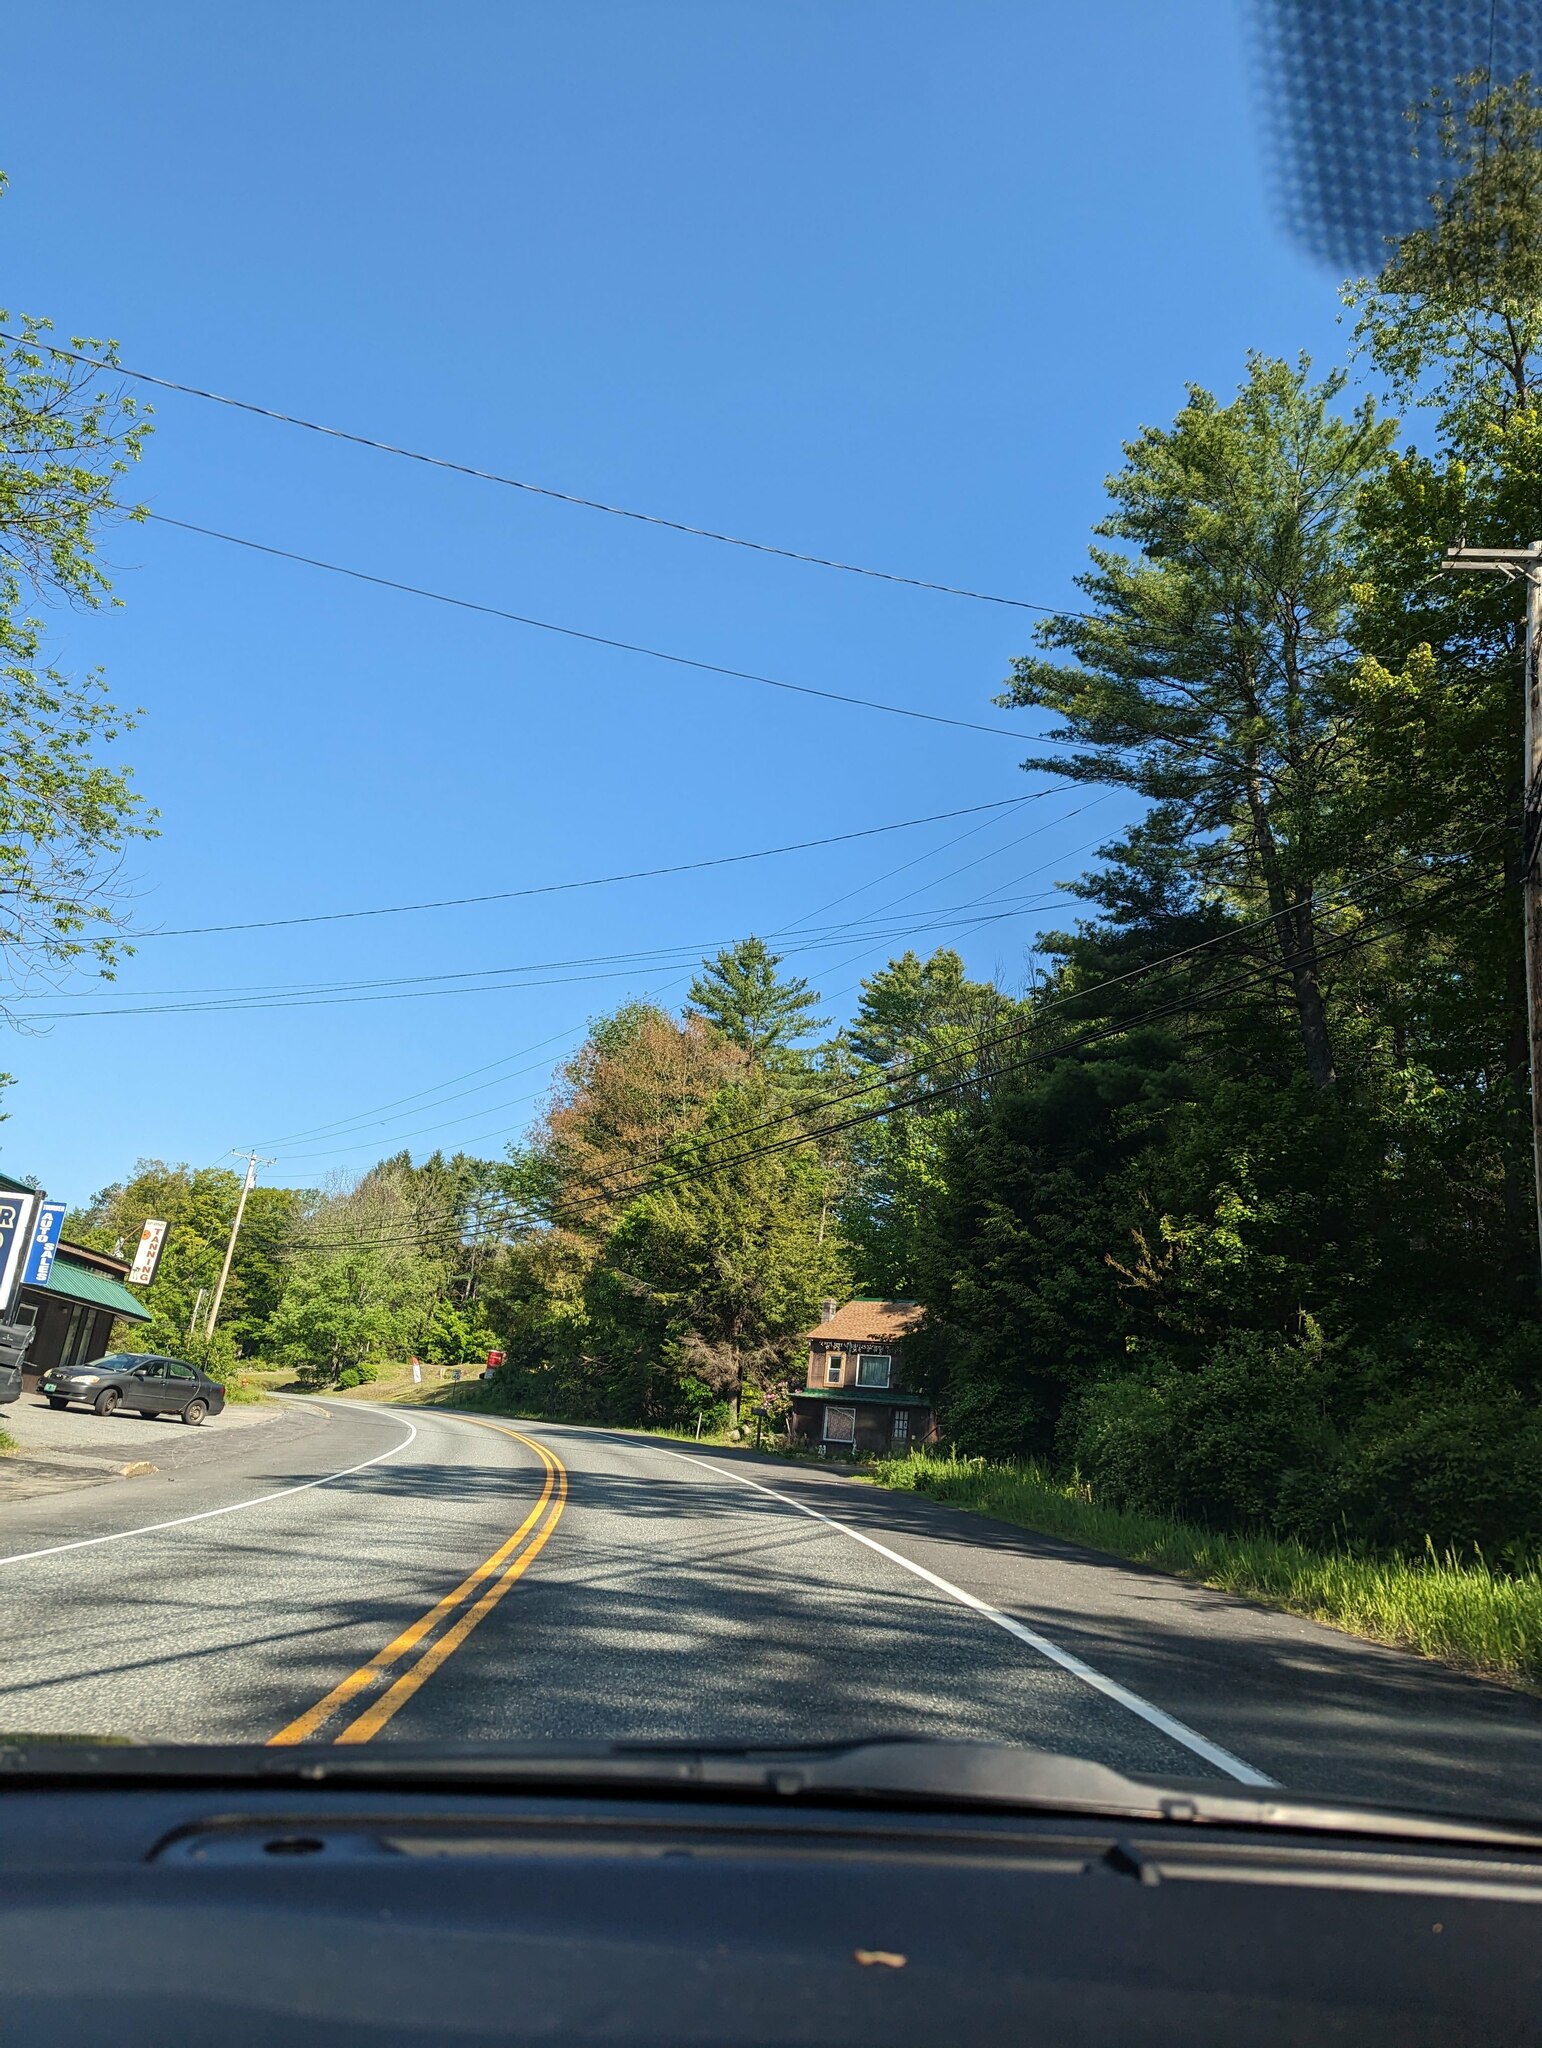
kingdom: Plantae
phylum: Tracheophyta
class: Pinopsida
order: Pinales
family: Pinaceae
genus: Pinus
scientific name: Pinus strobus
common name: Weymouth pine
